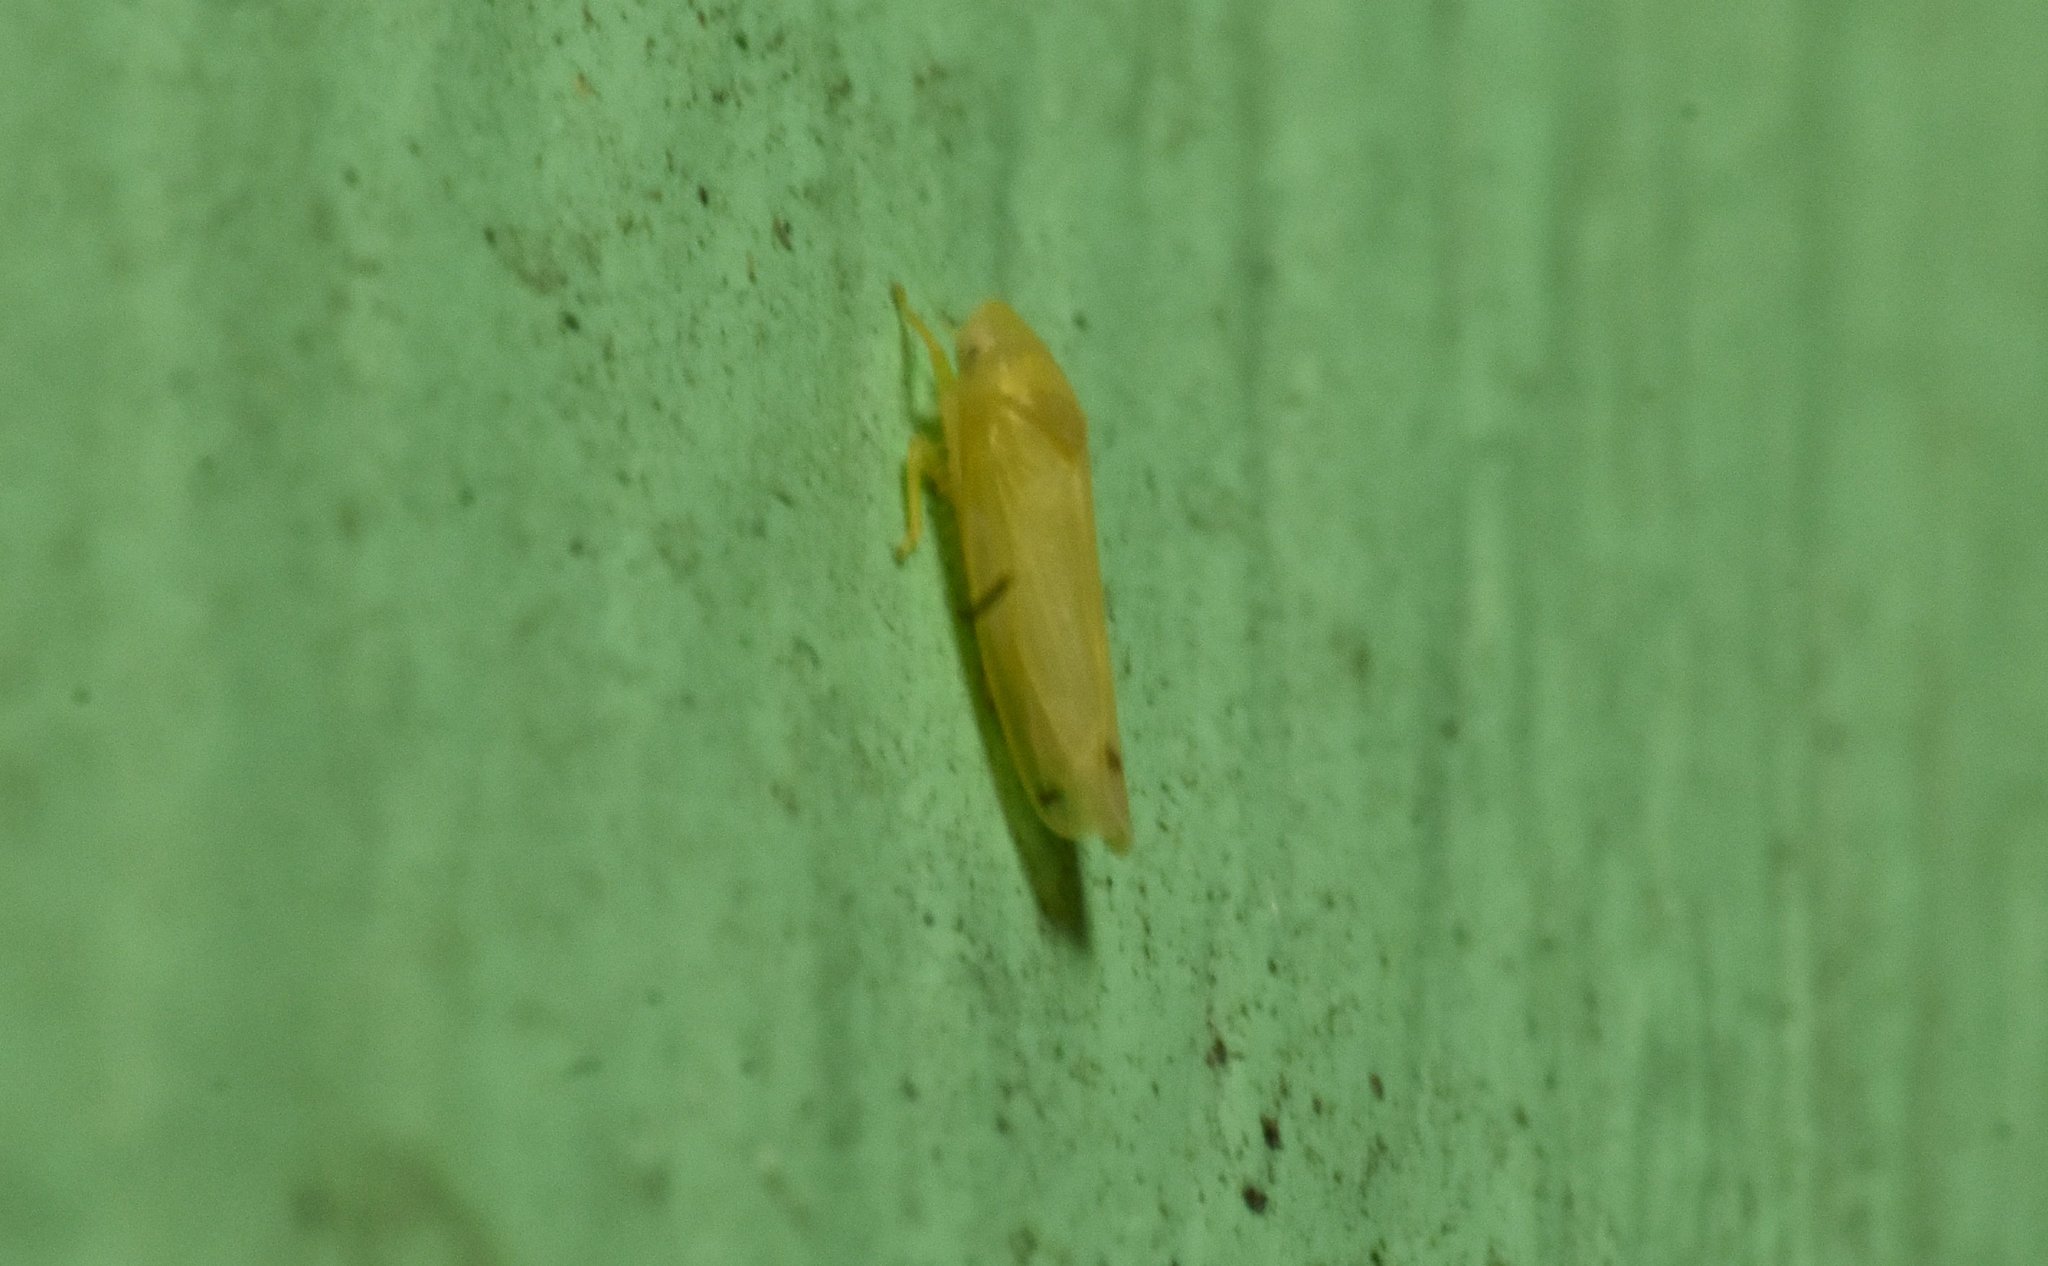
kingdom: Animalia
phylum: Arthropoda
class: Insecta
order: Hemiptera
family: Cicadellidae
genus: Dikrella
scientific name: Dikrella cedrelae
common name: Leafhopper
